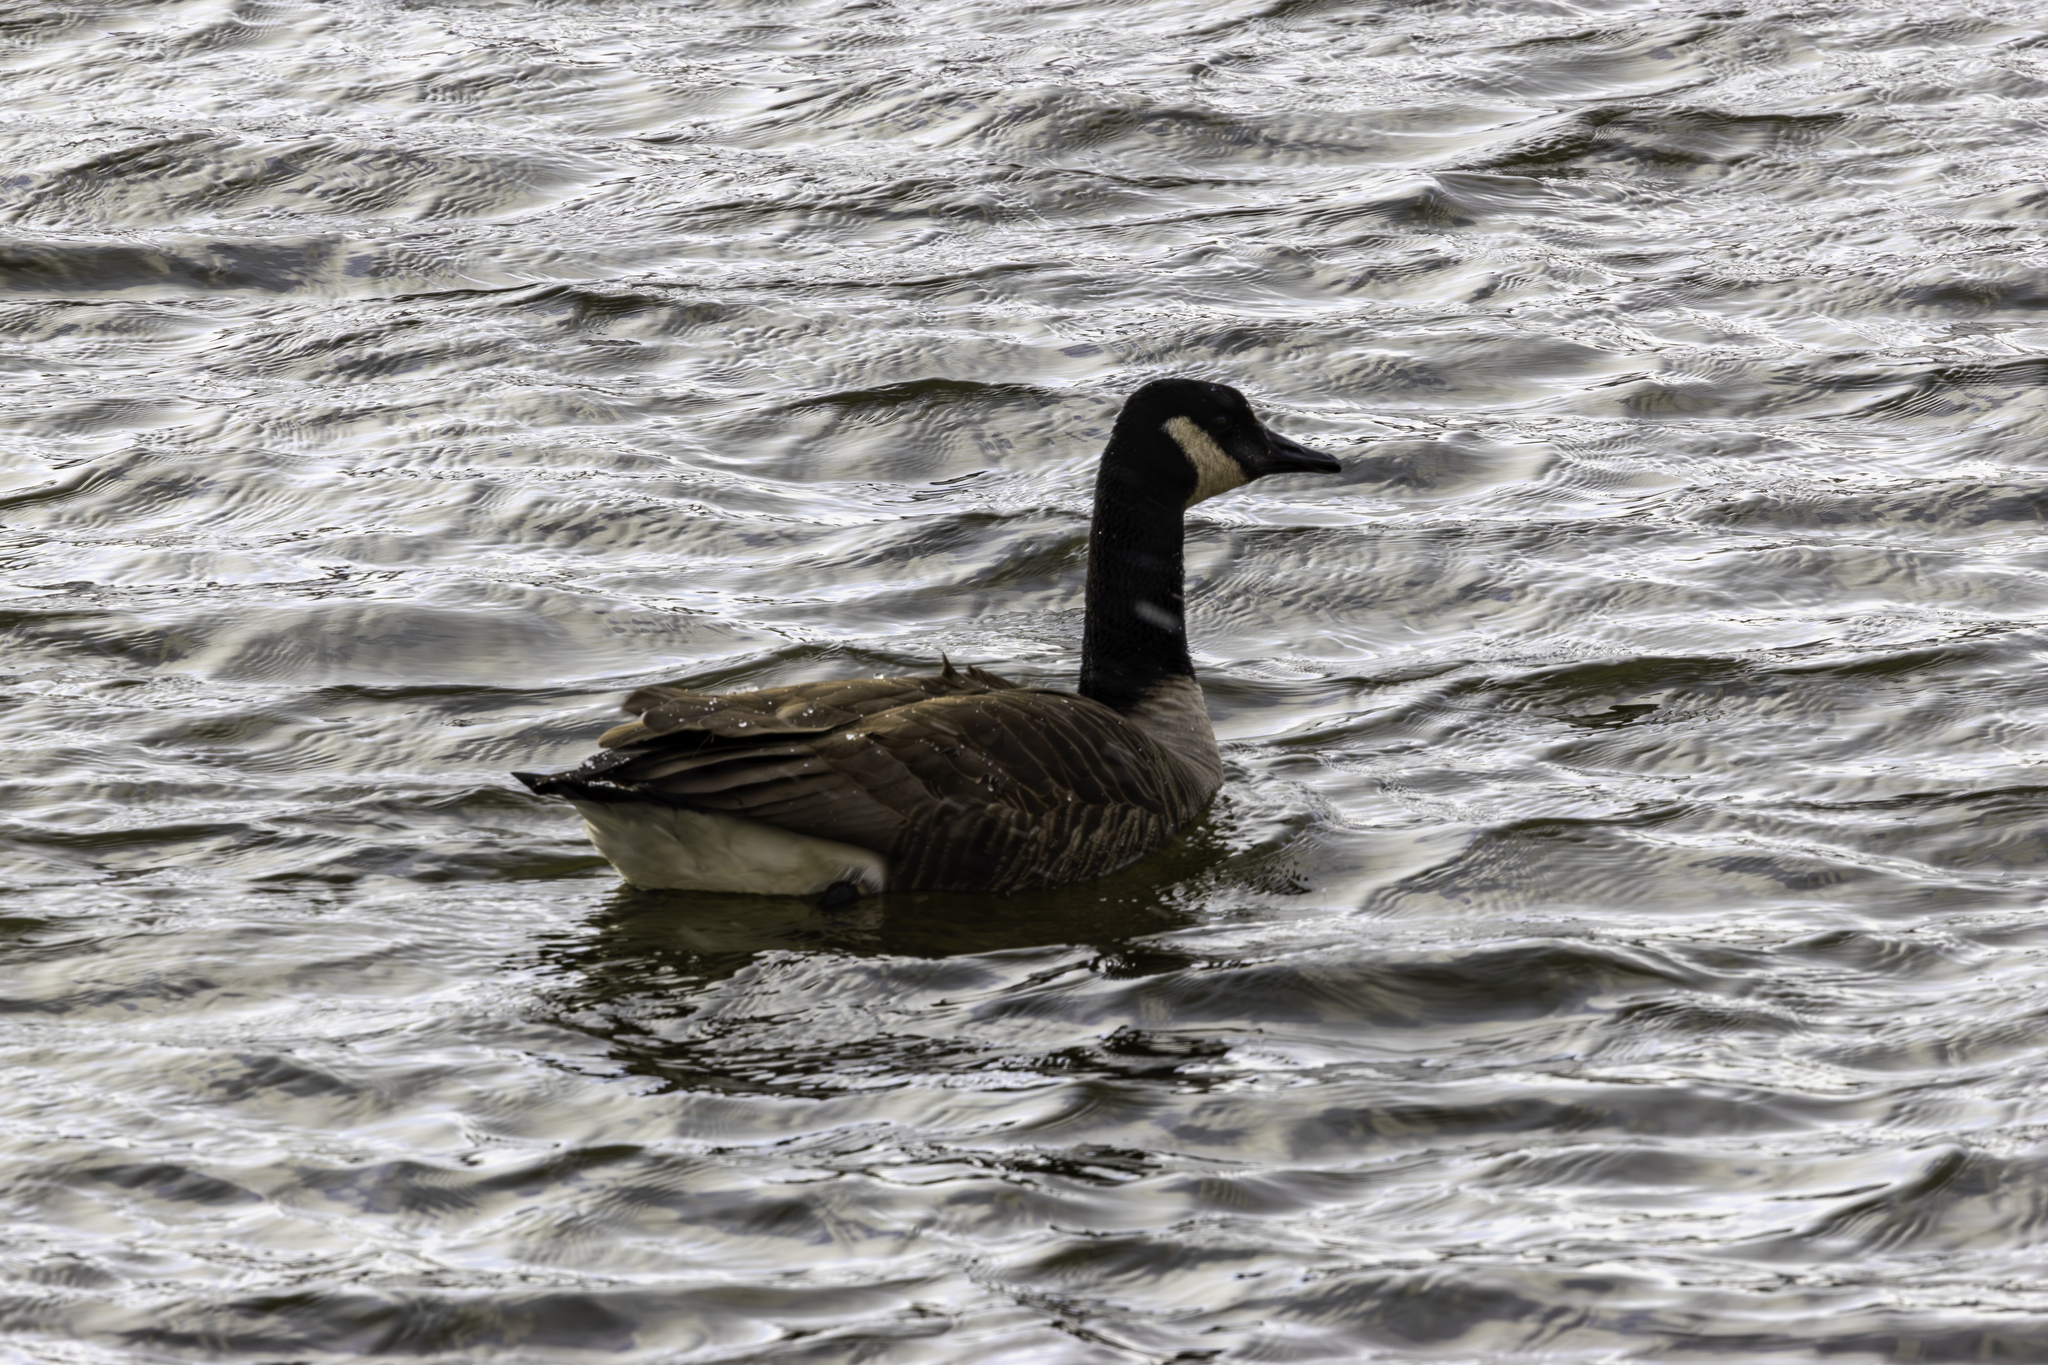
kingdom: Animalia
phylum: Chordata
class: Aves
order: Anseriformes
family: Anatidae
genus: Branta
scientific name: Branta canadensis
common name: Canada goose
